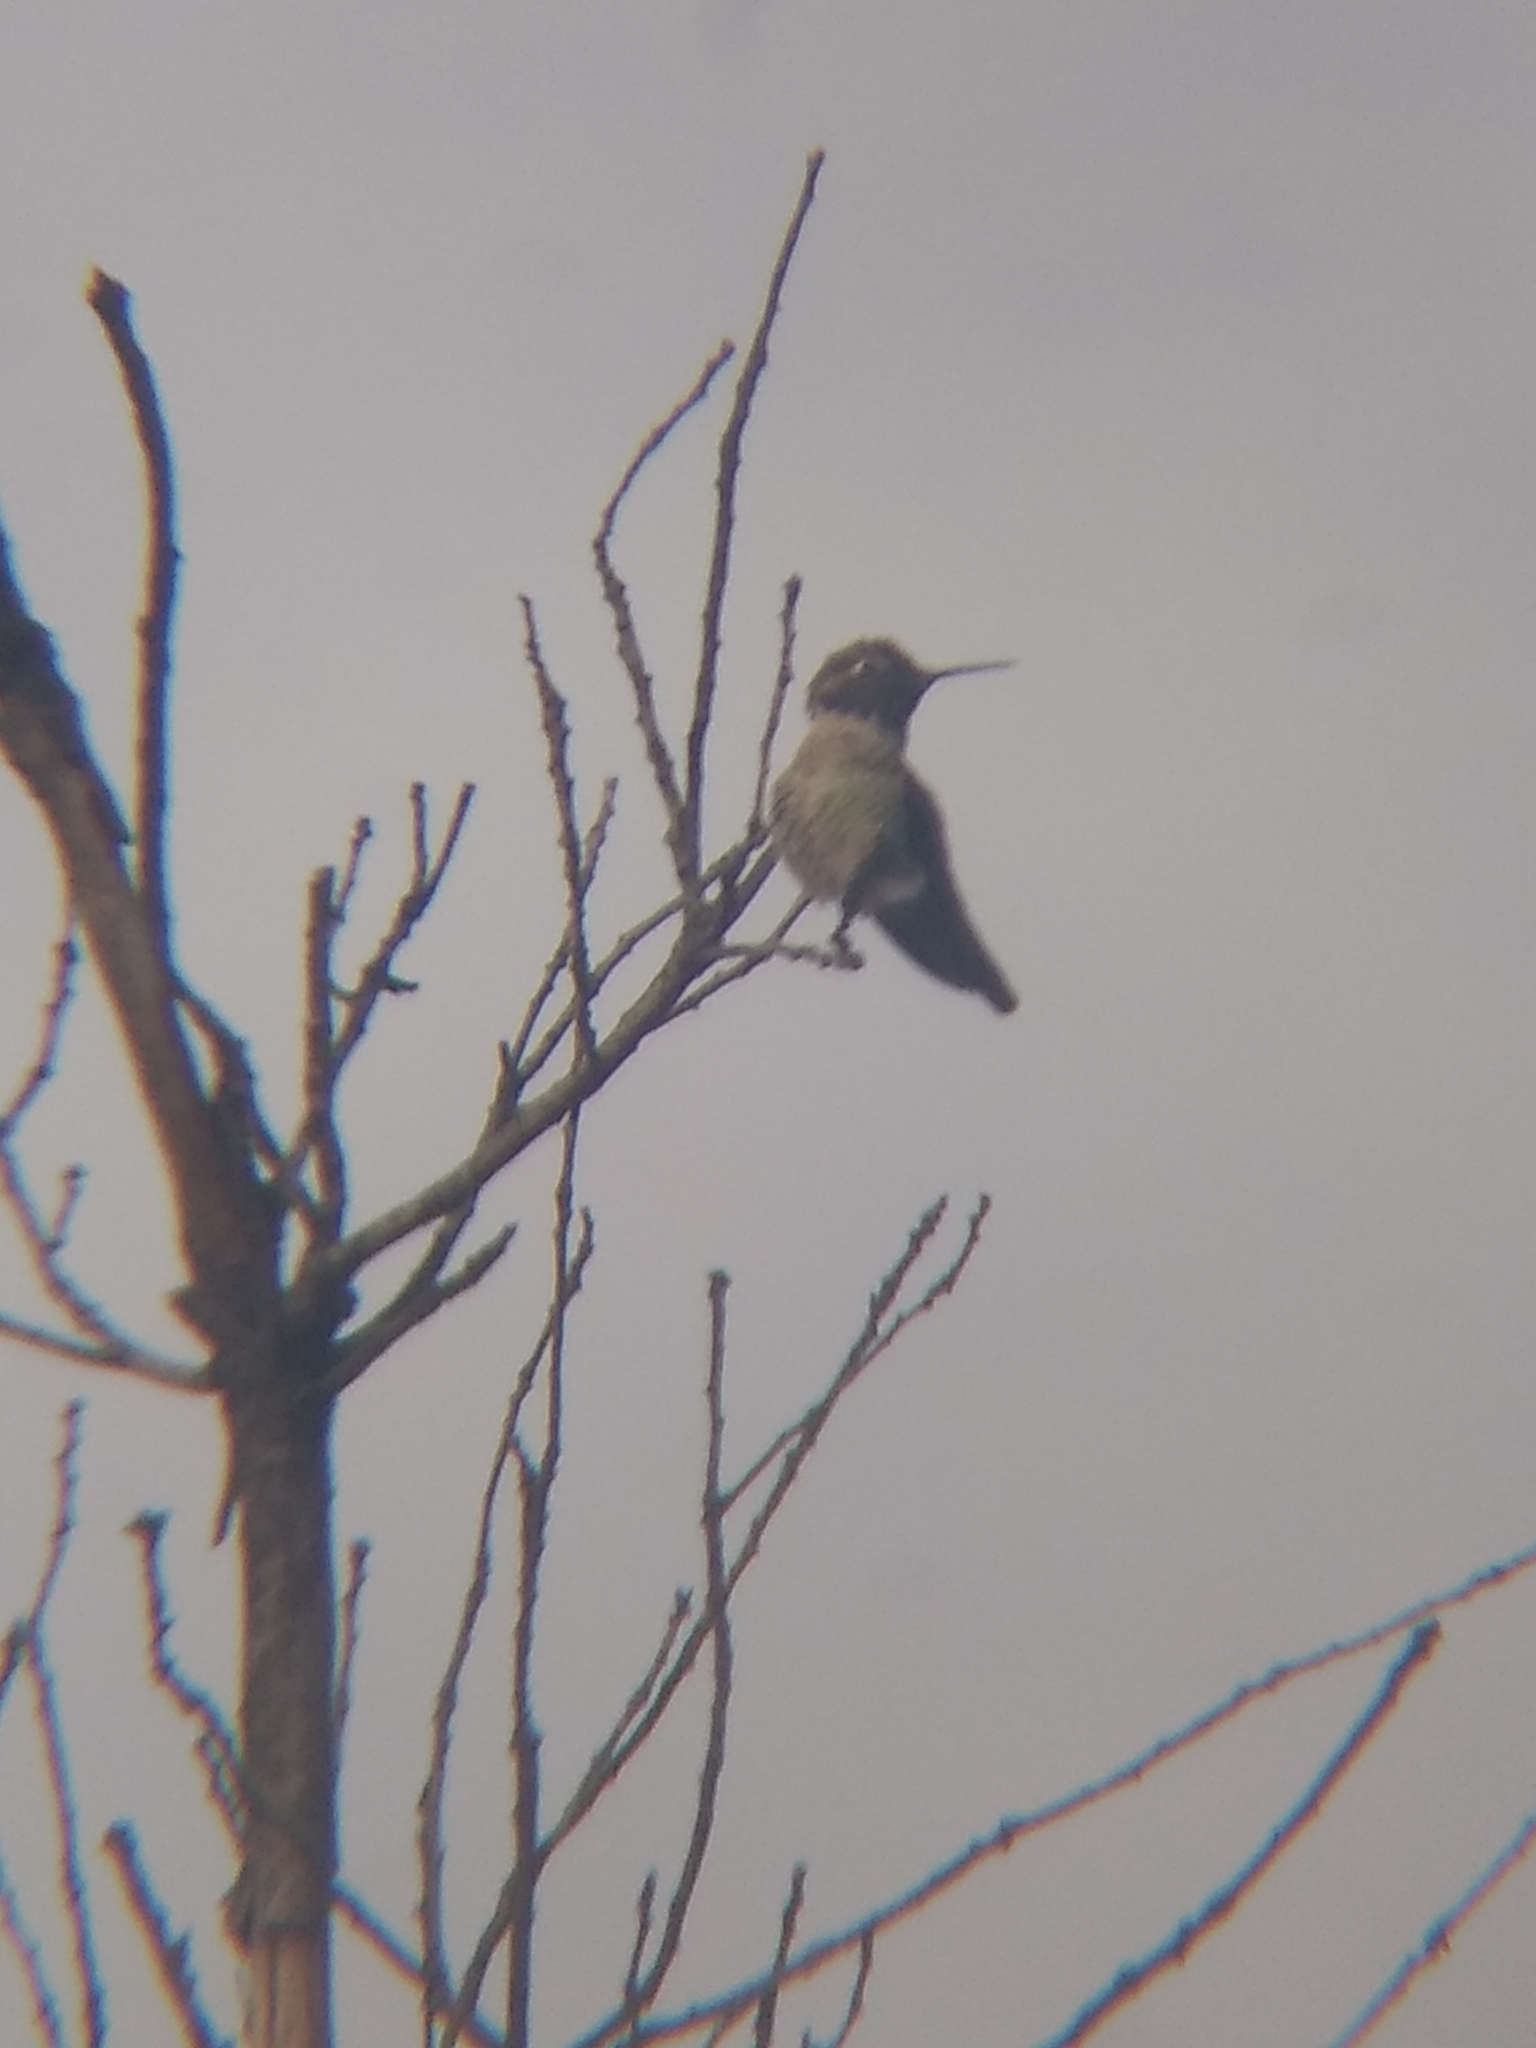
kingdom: Animalia
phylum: Chordata
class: Aves
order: Apodiformes
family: Trochilidae
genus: Calypte
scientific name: Calypte anna
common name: Anna's hummingbird
